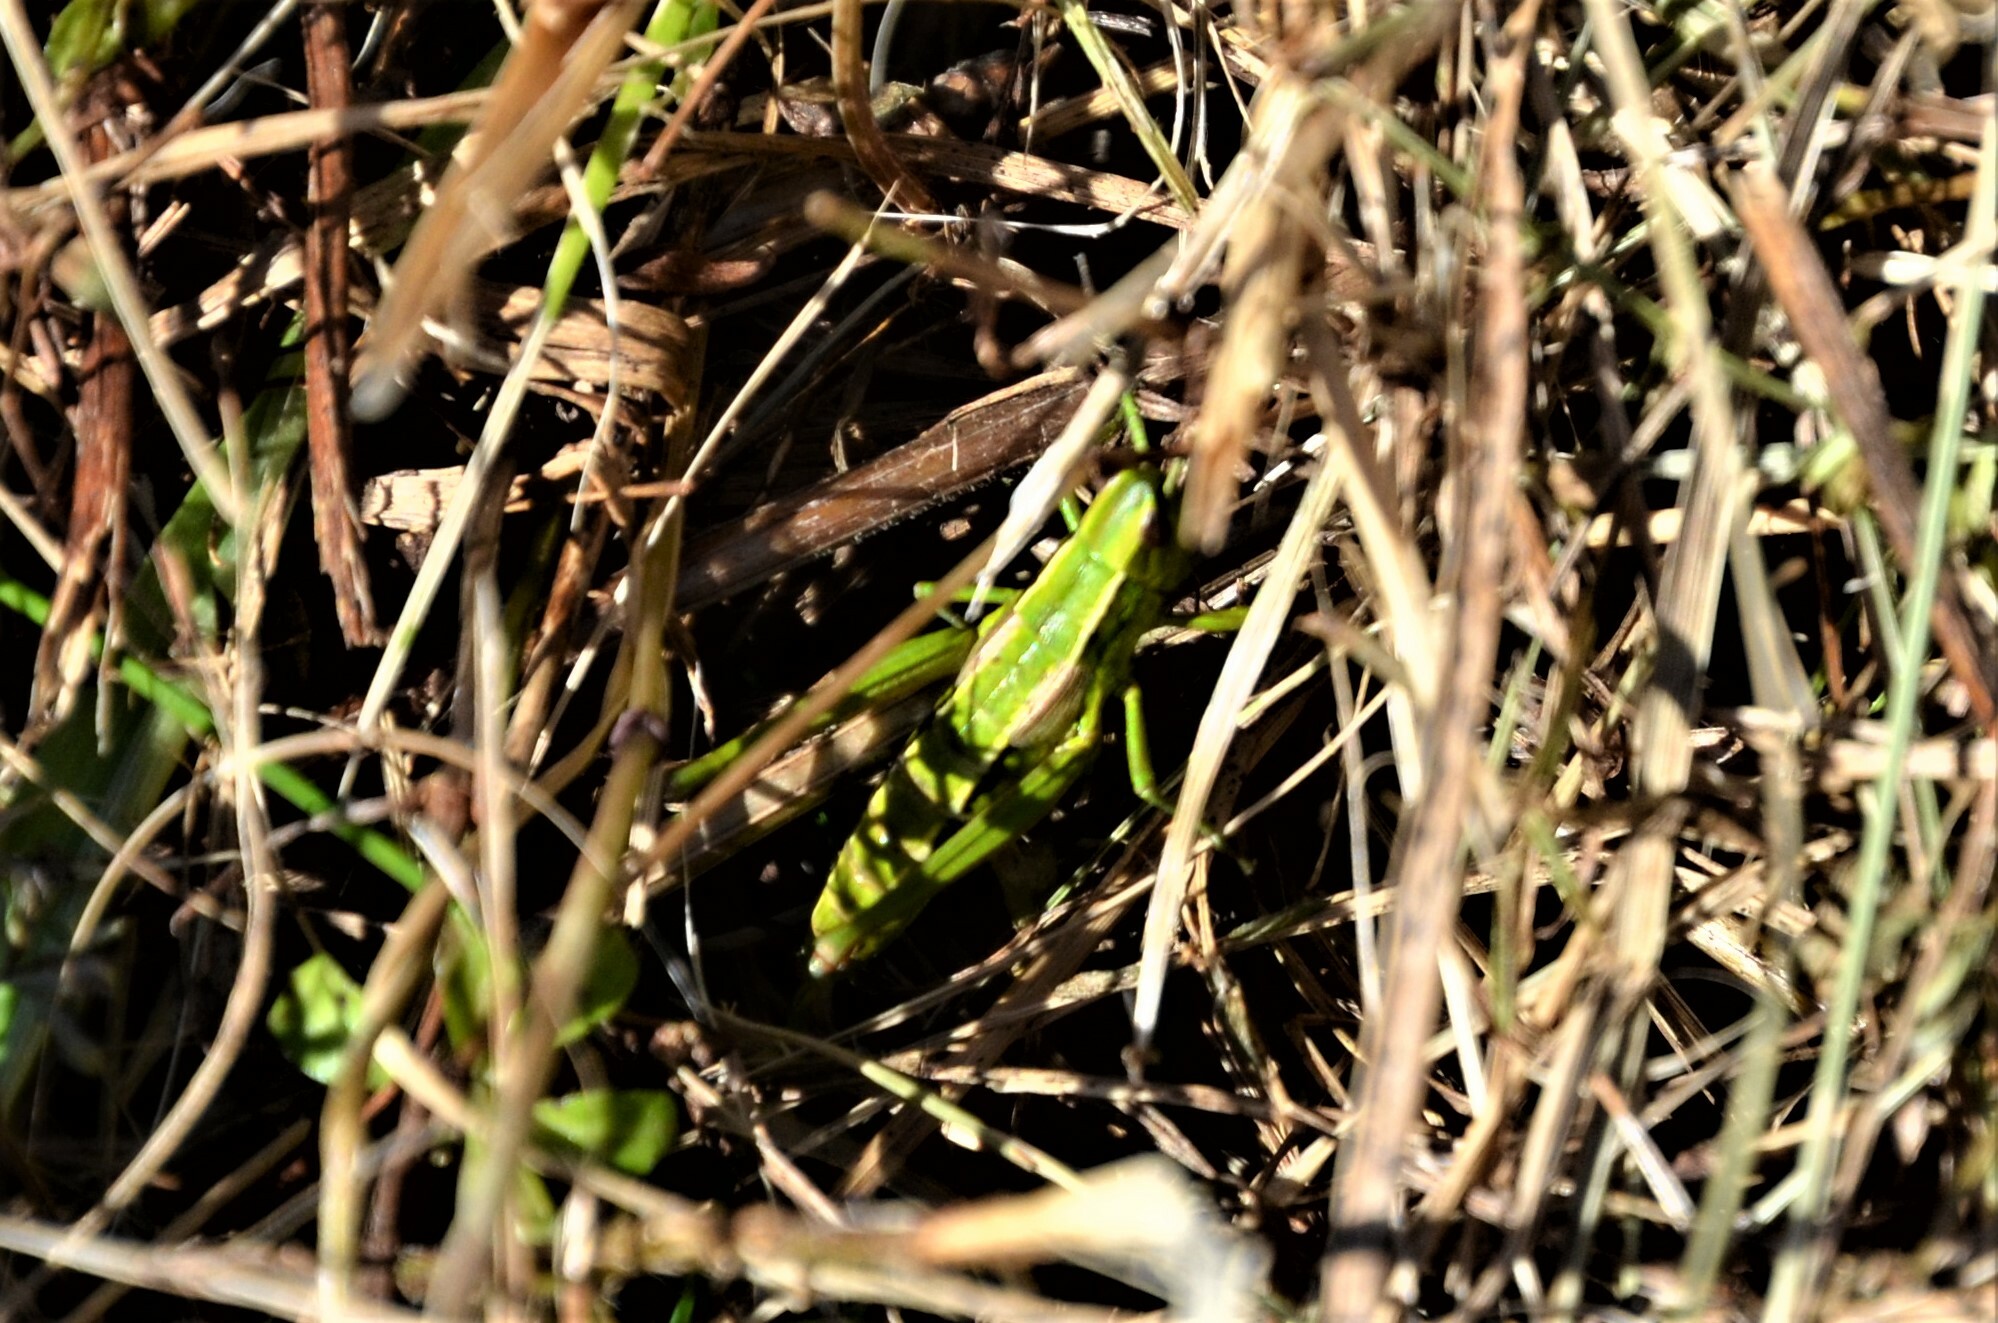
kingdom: Animalia
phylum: Arthropoda
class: Insecta
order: Orthoptera
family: Acrididae
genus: Euthystira
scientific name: Euthystira brachyptera
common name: Small gold grasshopper
